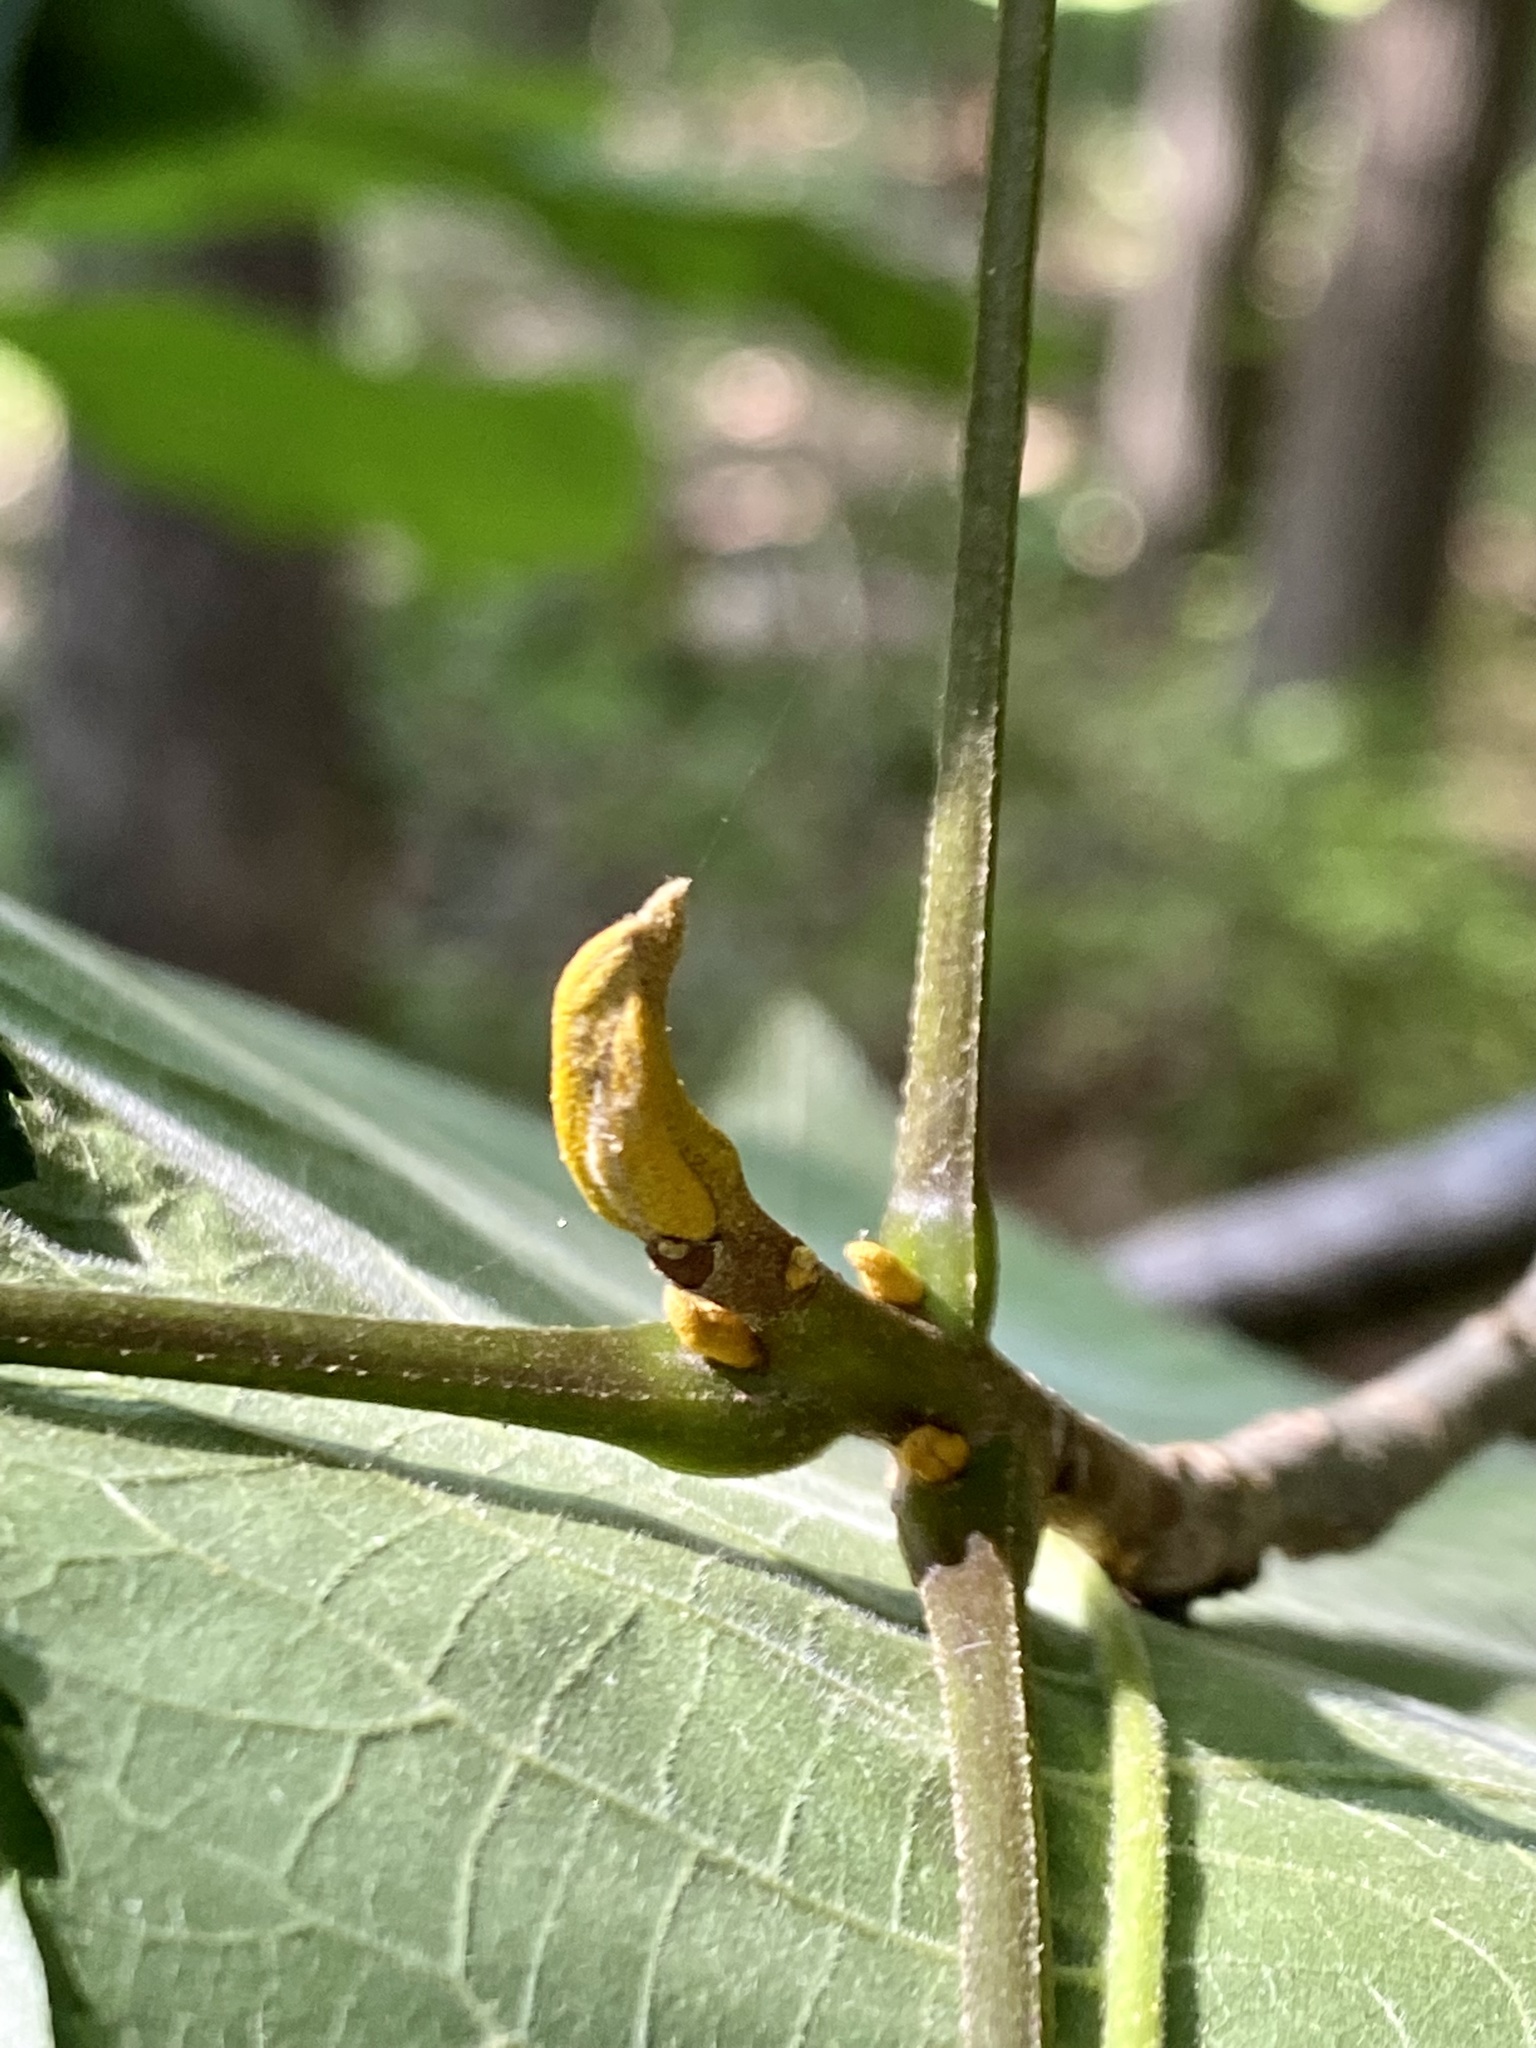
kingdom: Plantae
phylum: Tracheophyta
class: Magnoliopsida
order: Fagales
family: Juglandaceae
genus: Carya
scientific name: Carya cordiformis
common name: Bitternut hickory
